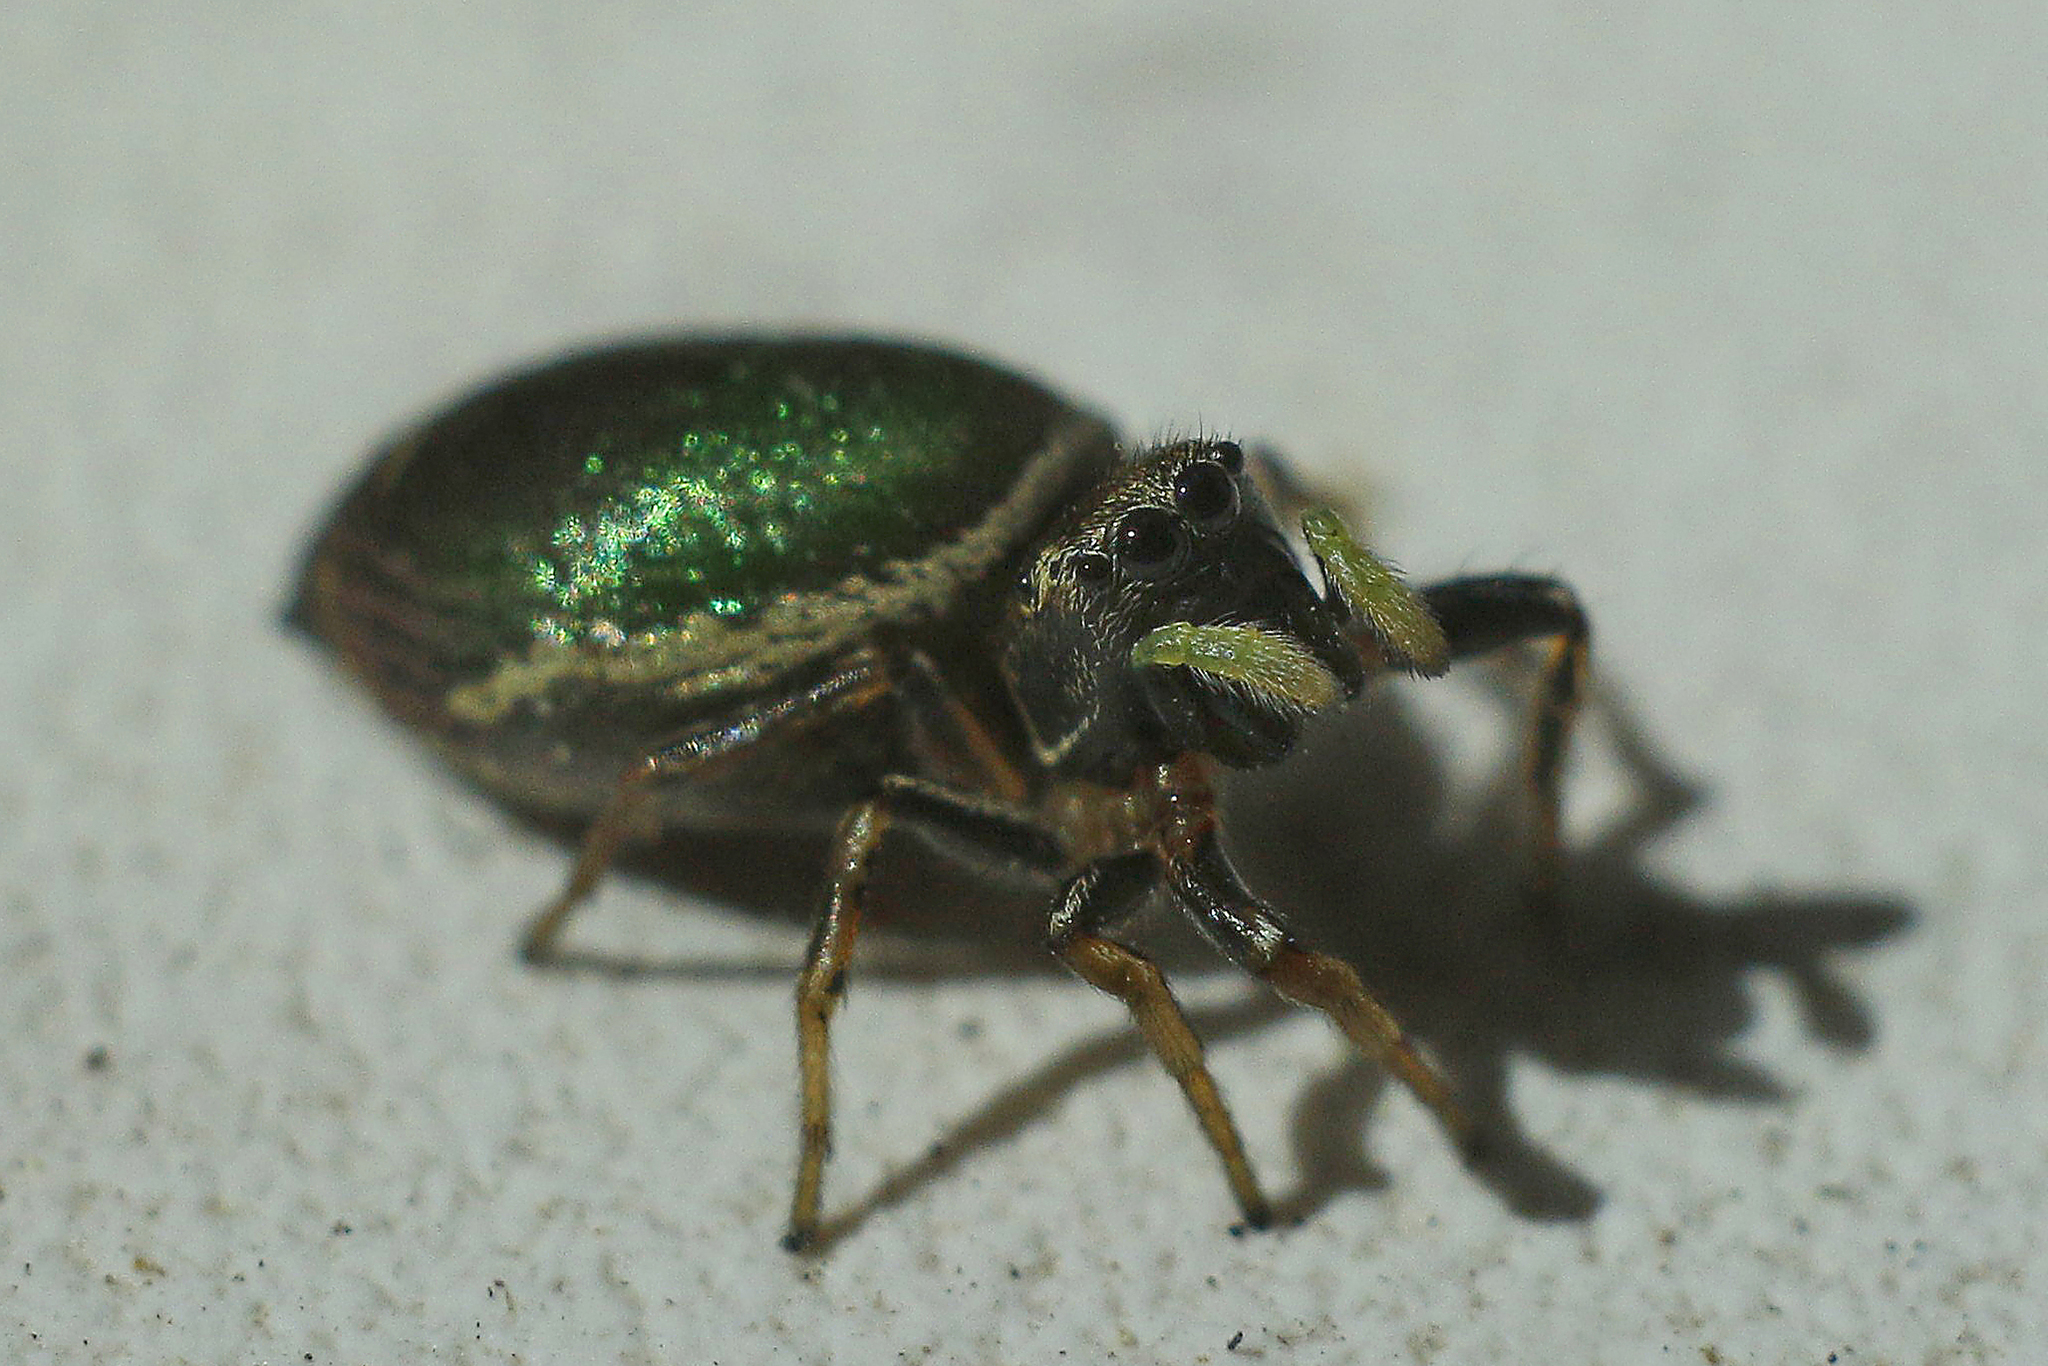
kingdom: Animalia
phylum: Arthropoda
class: Arachnida
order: Araneae
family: Salticidae
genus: Heliophanus
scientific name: Heliophanus auratus
